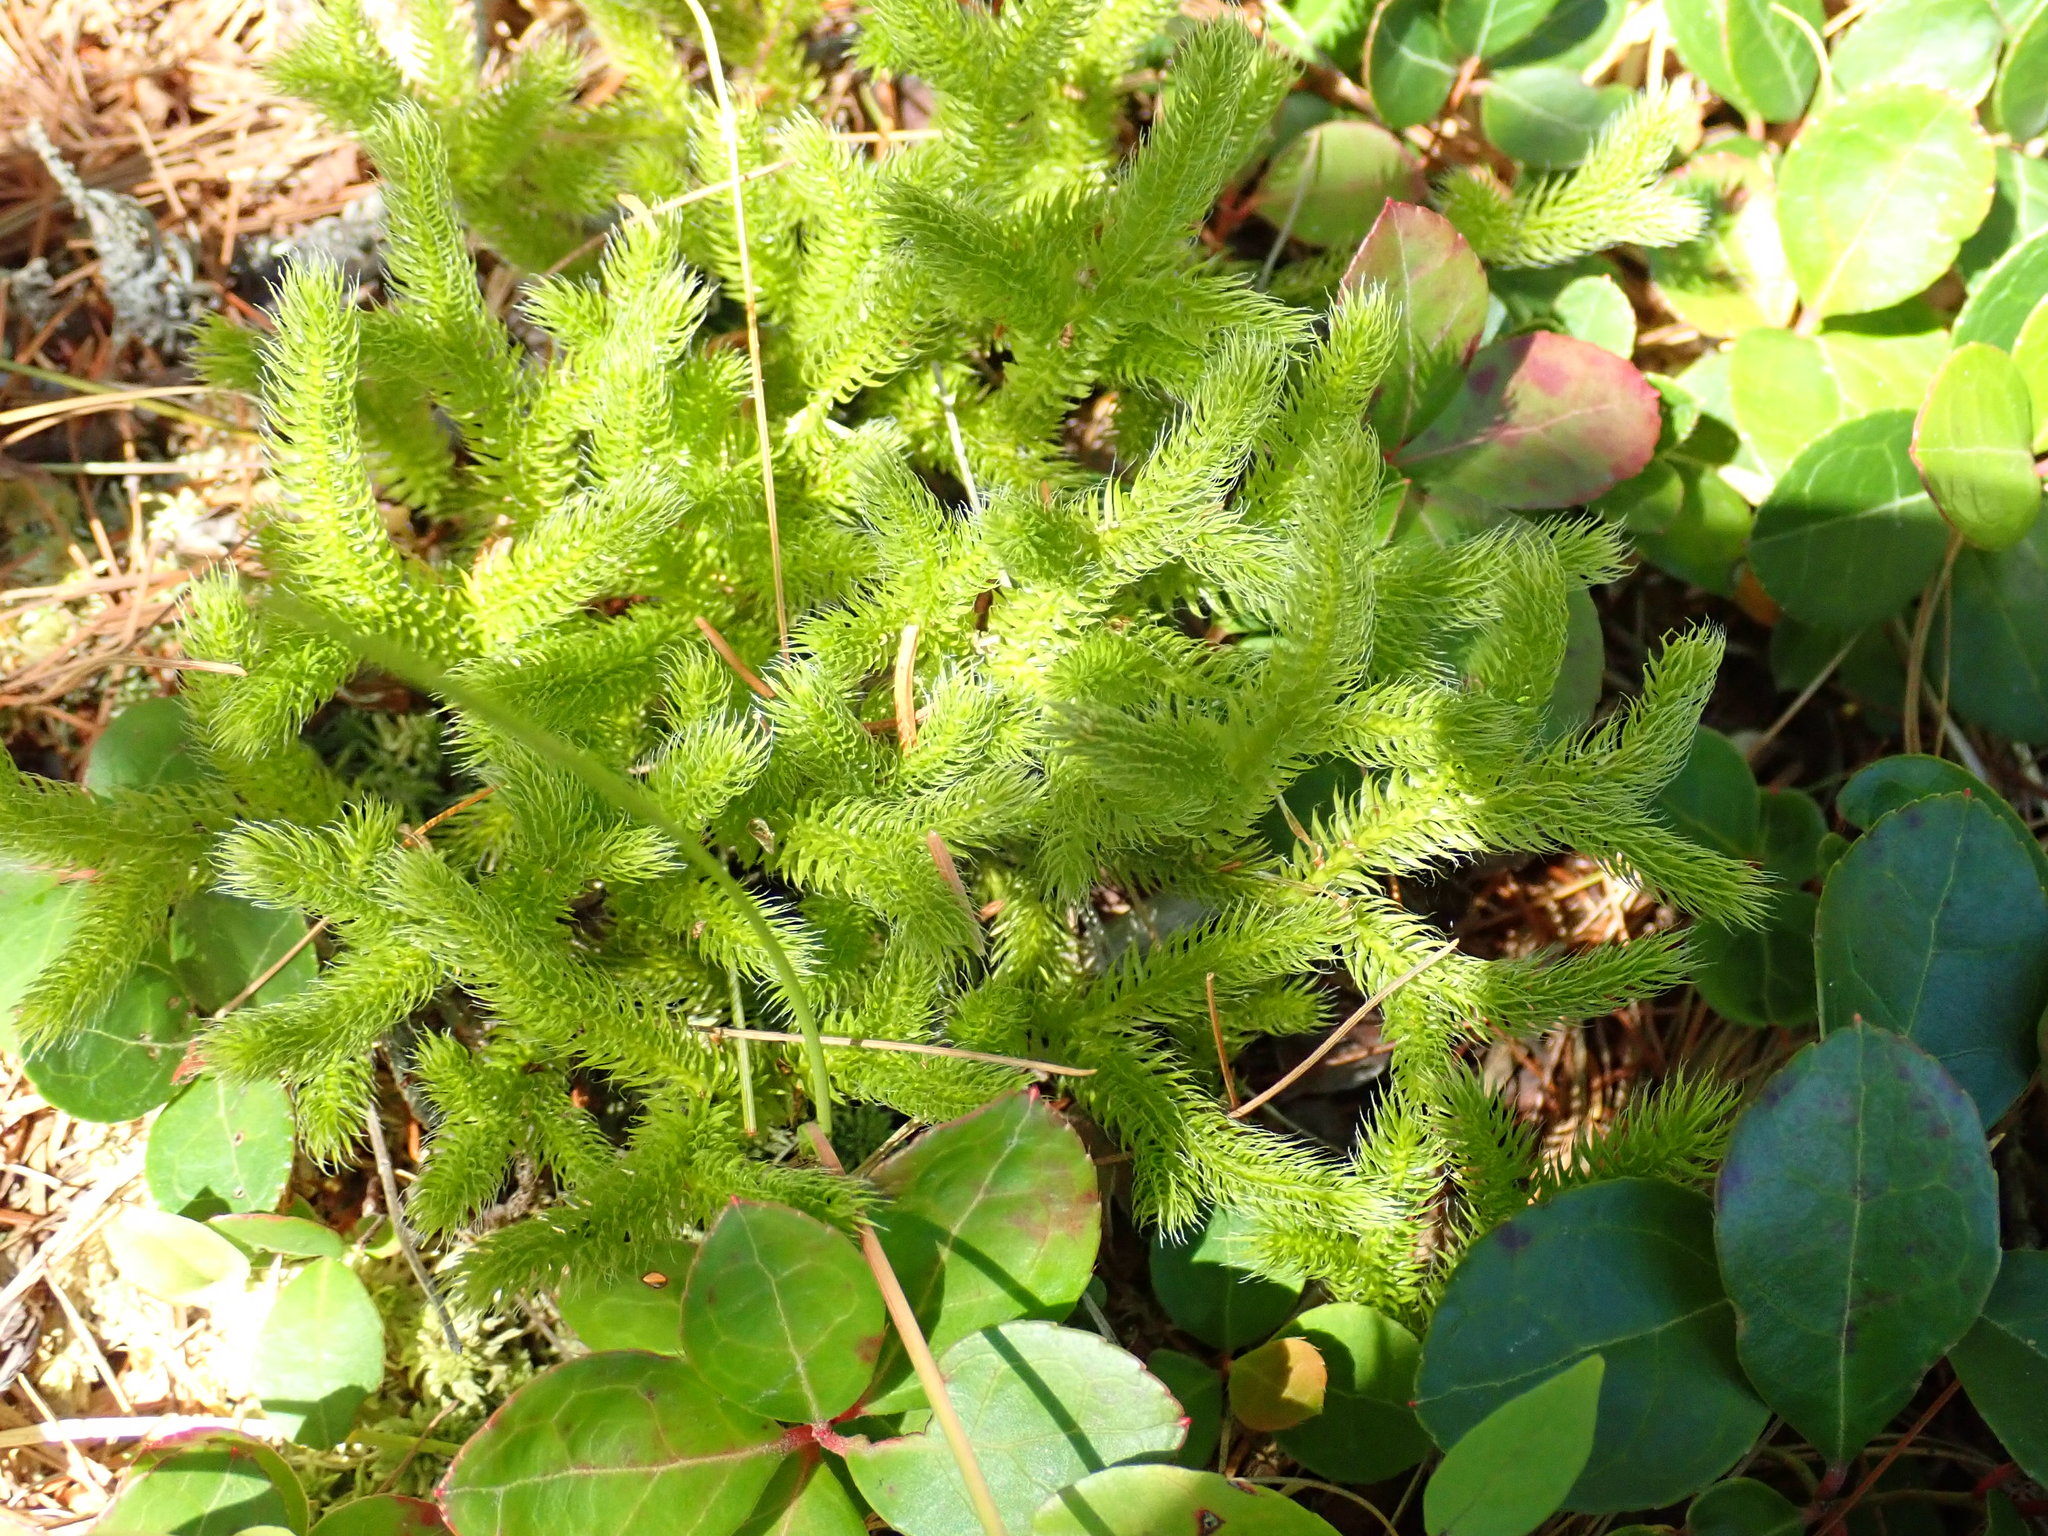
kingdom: Plantae
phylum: Tracheophyta
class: Lycopodiopsida
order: Lycopodiales
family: Lycopodiaceae
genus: Lycopodium
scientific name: Lycopodium clavatum
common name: Stag's-horn clubmoss
